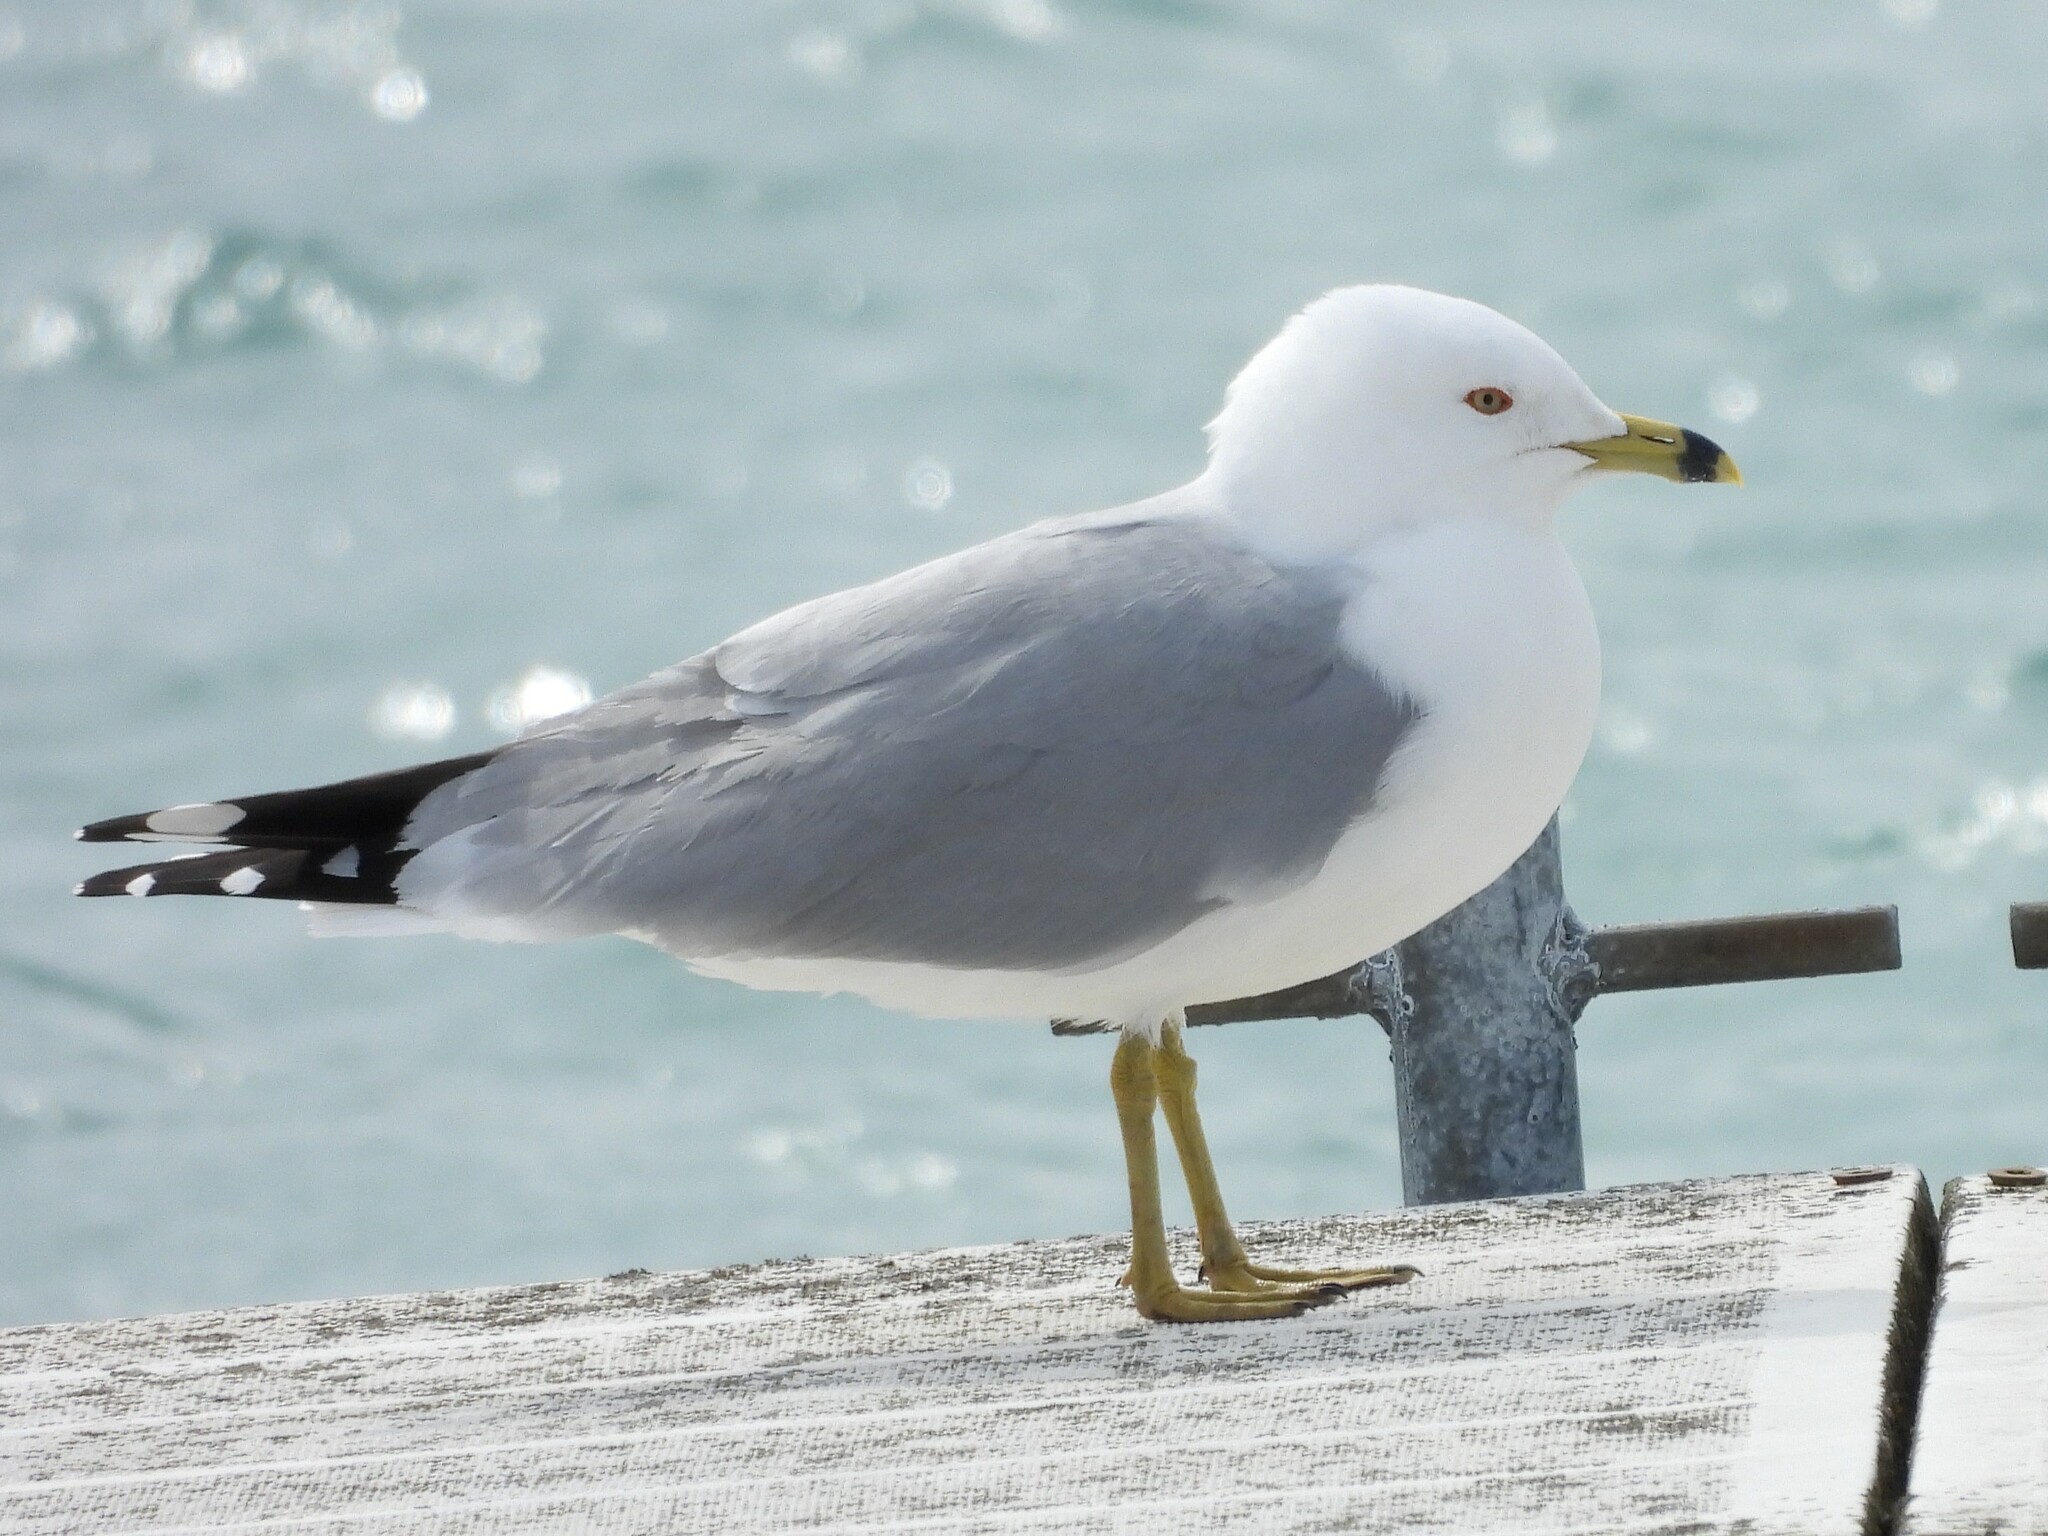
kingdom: Animalia
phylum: Chordata
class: Aves
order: Charadriiformes
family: Laridae
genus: Larus
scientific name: Larus delawarensis
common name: Ring-billed gull
